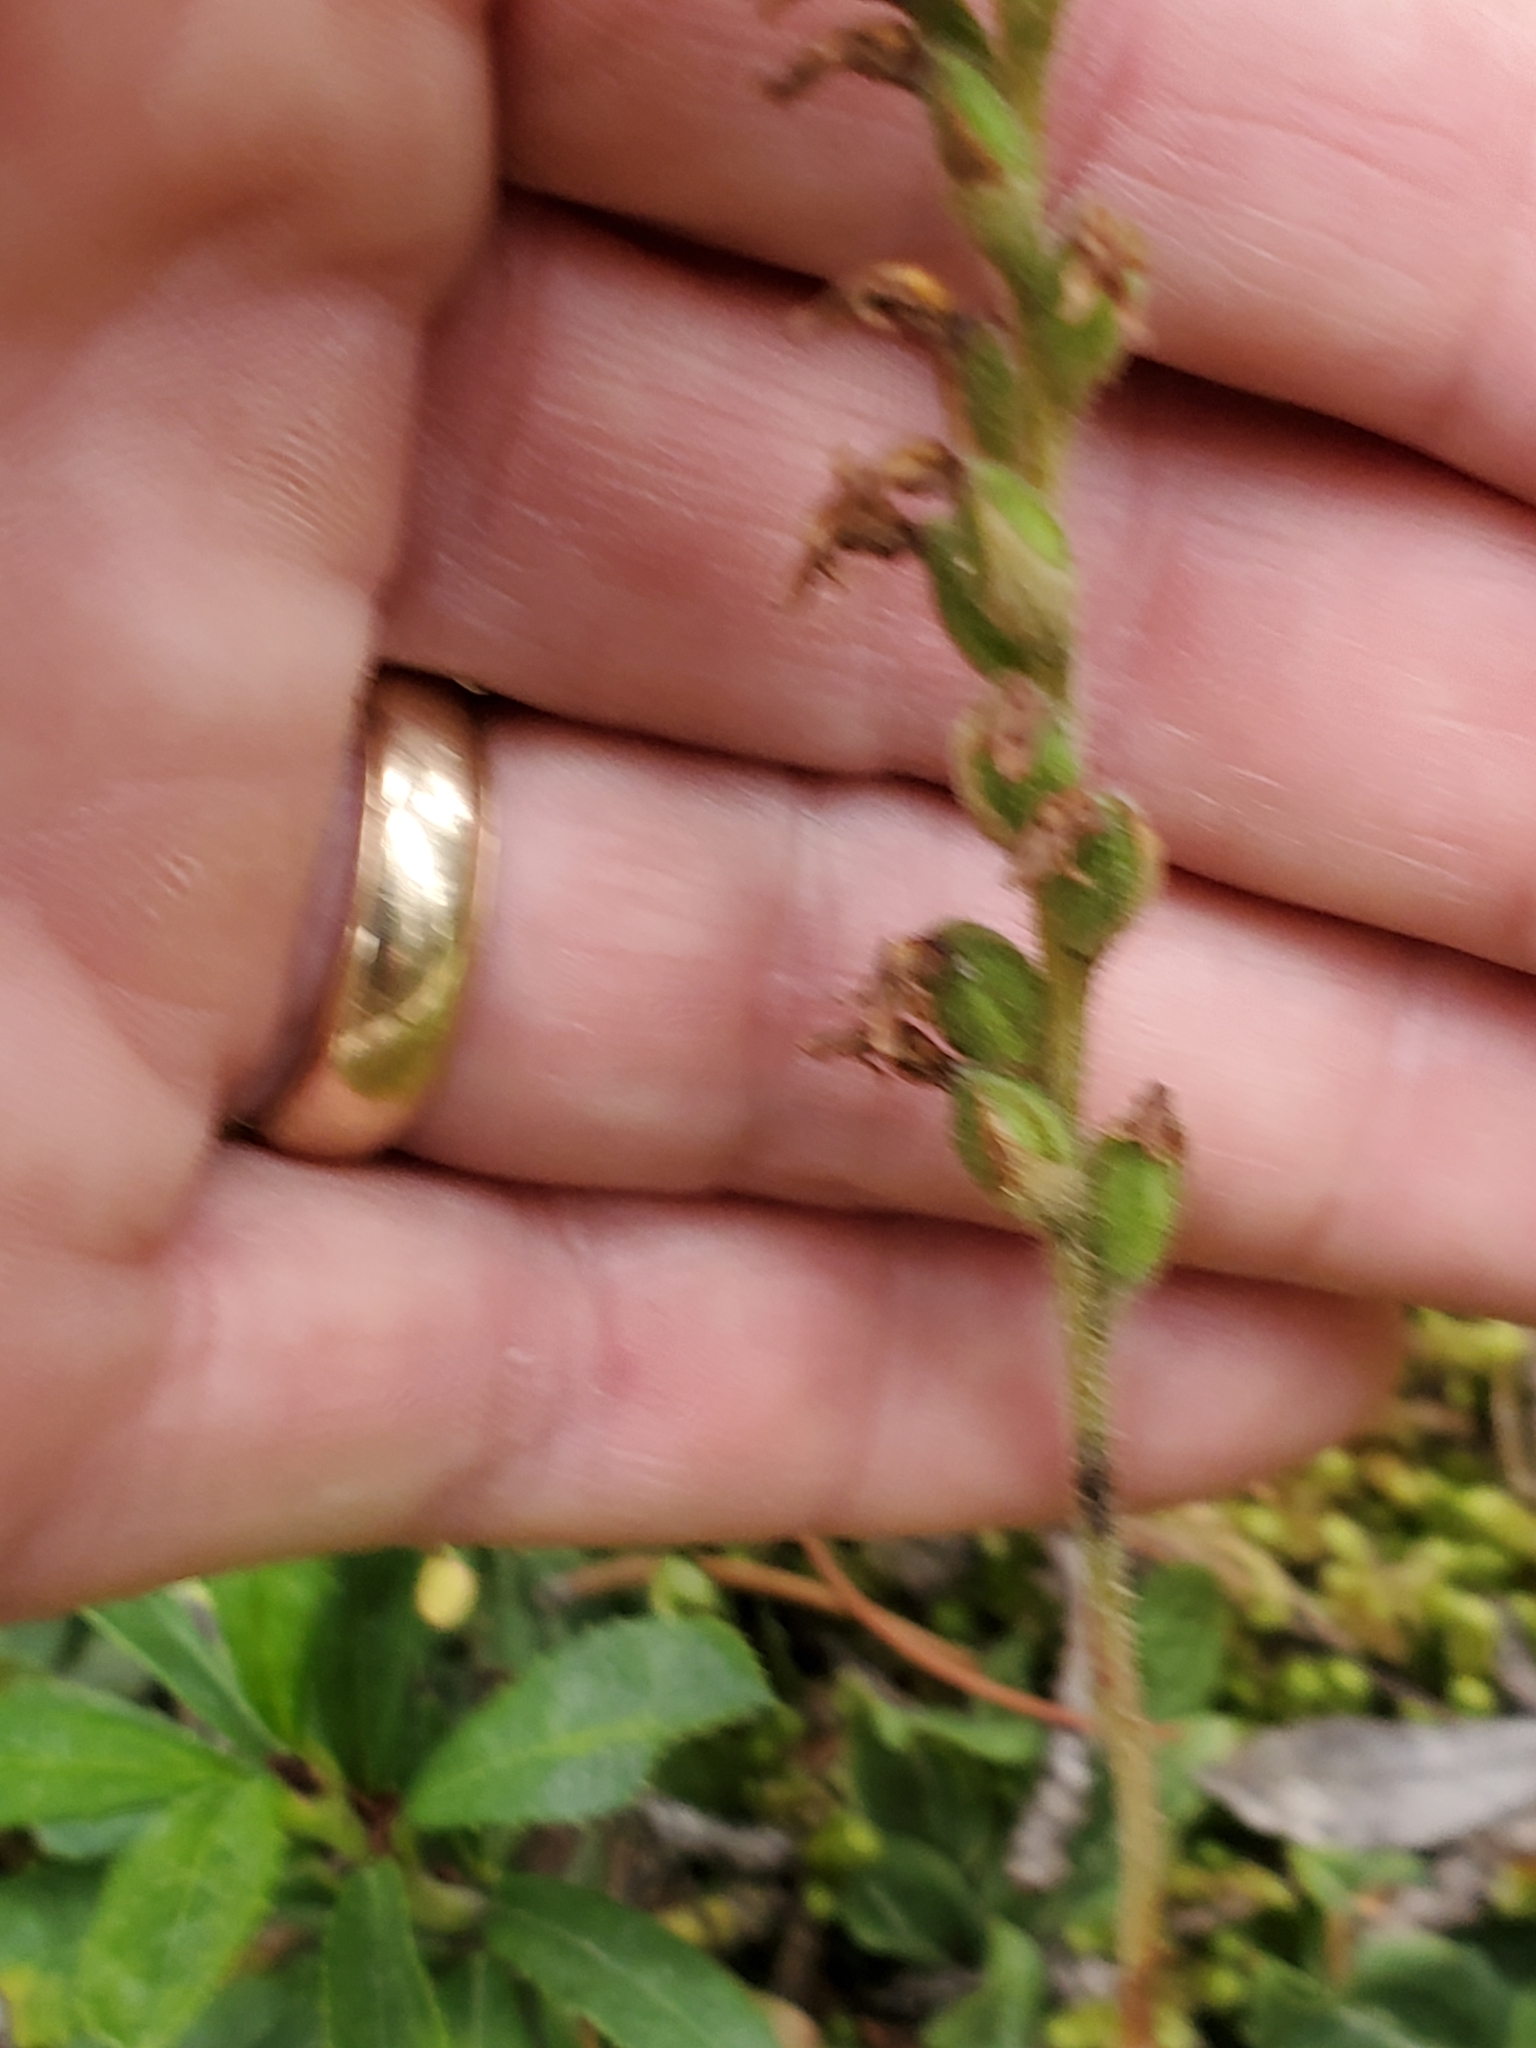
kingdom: Plantae
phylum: Tracheophyta
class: Liliopsida
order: Asparagales
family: Orchidaceae
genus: Goodyera
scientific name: Goodyera oblongifolia
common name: Giant rattlesnake-plantain
